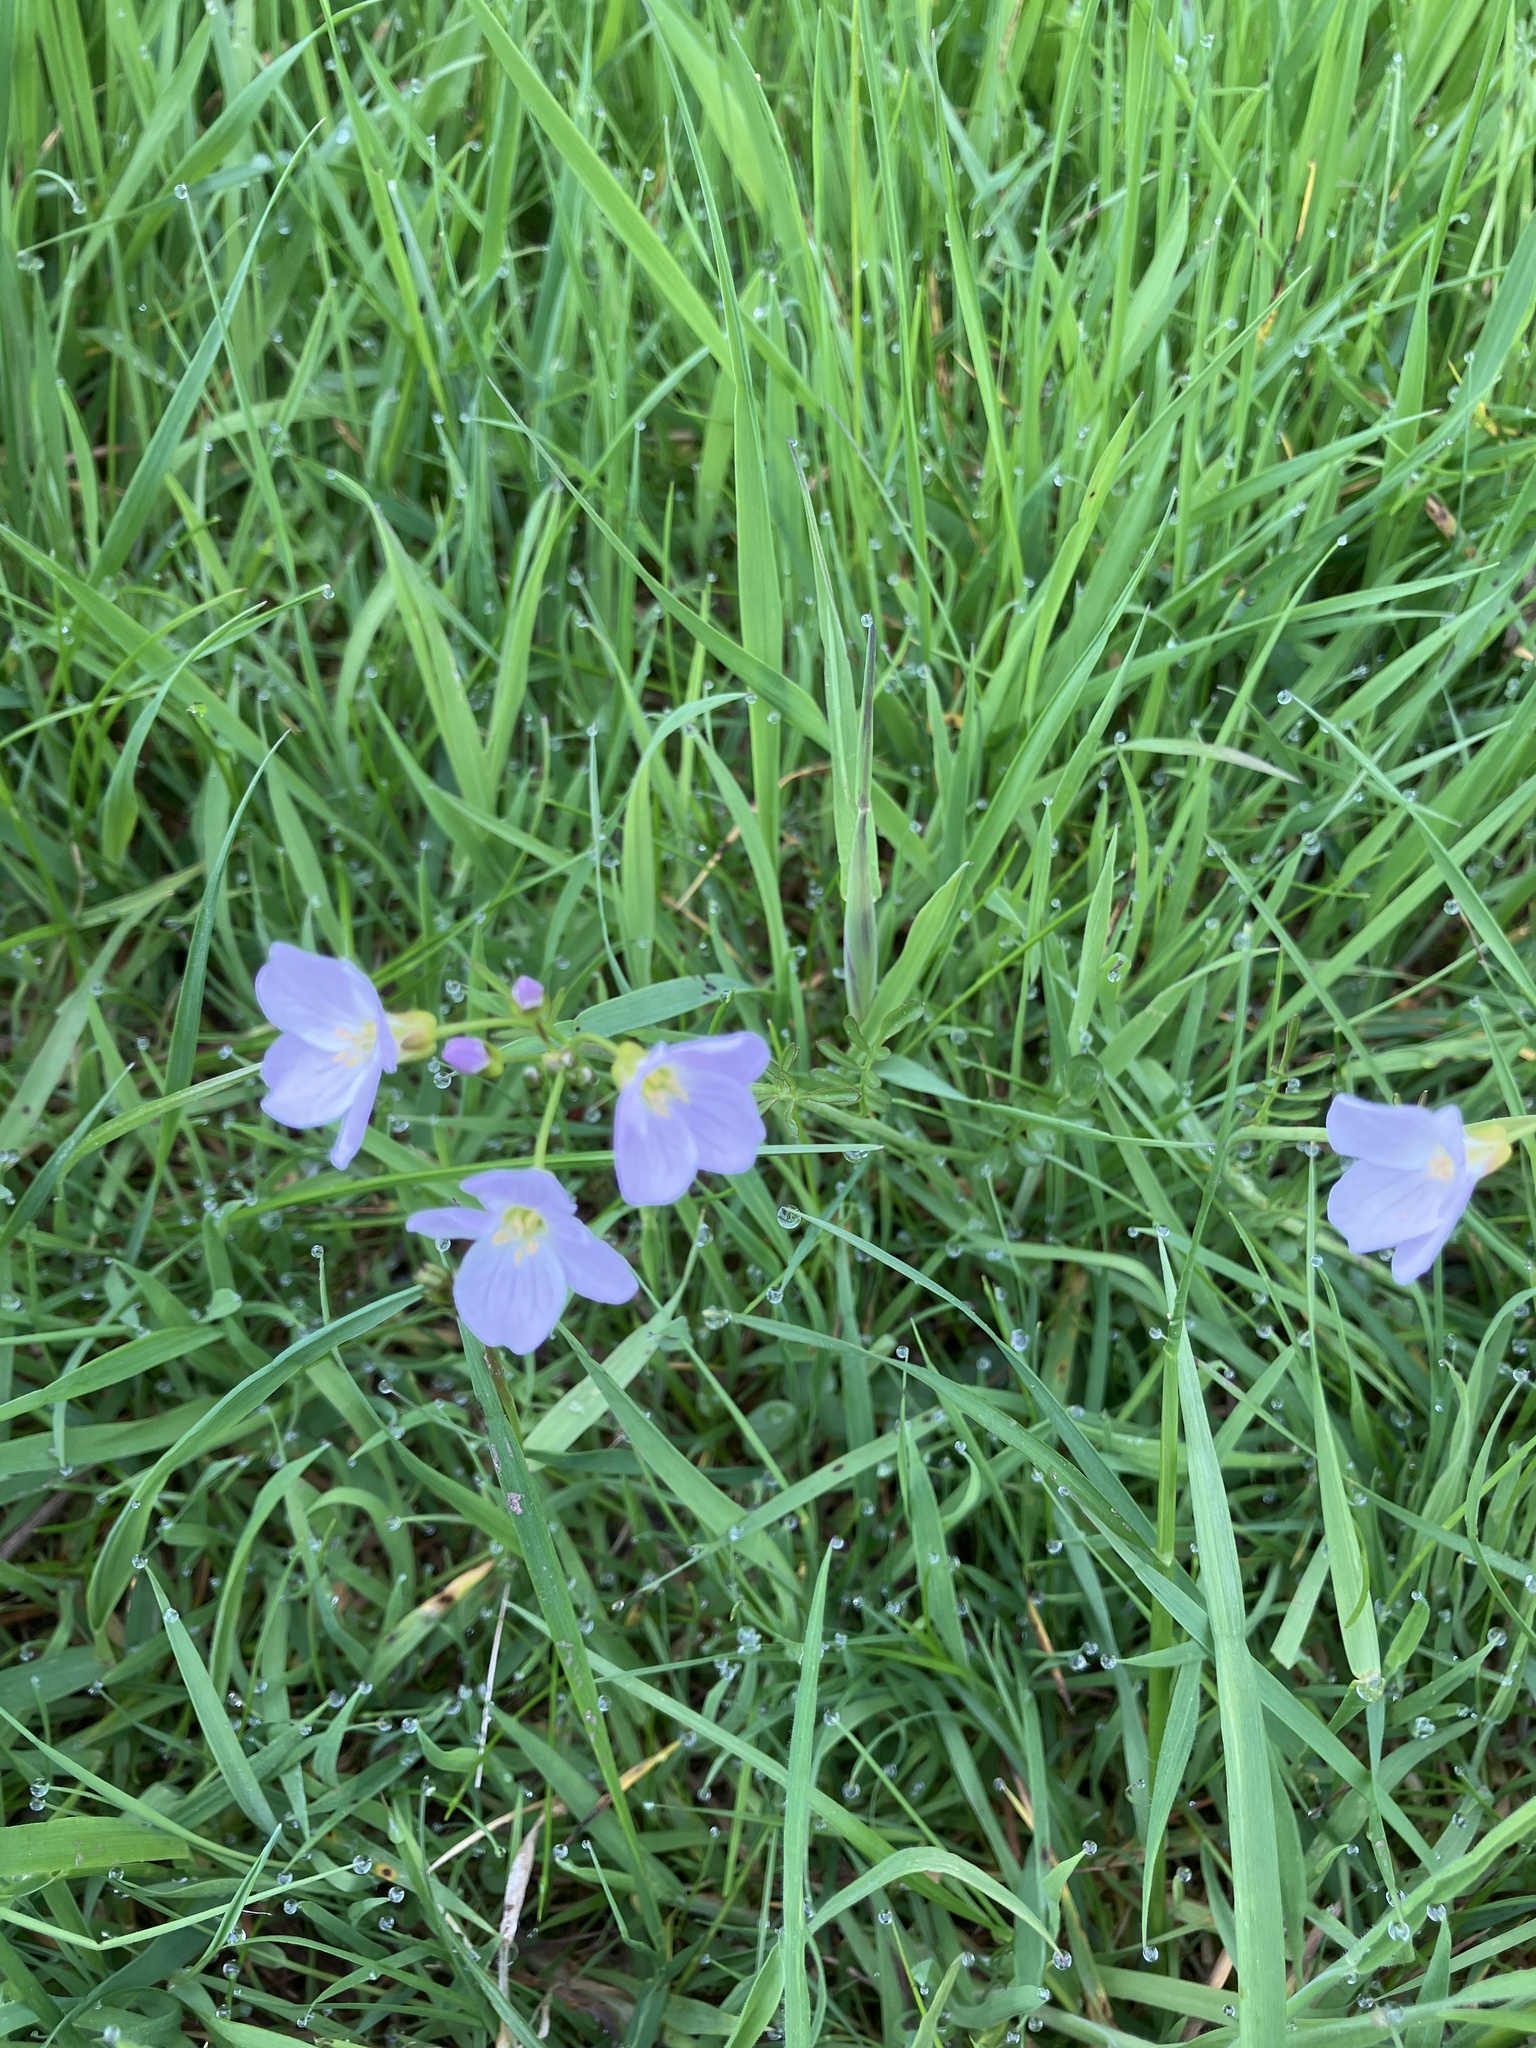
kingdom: Plantae
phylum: Tracheophyta
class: Magnoliopsida
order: Brassicales
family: Brassicaceae
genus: Cardamine
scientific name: Cardamine pratensis
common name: Cuckoo flower
